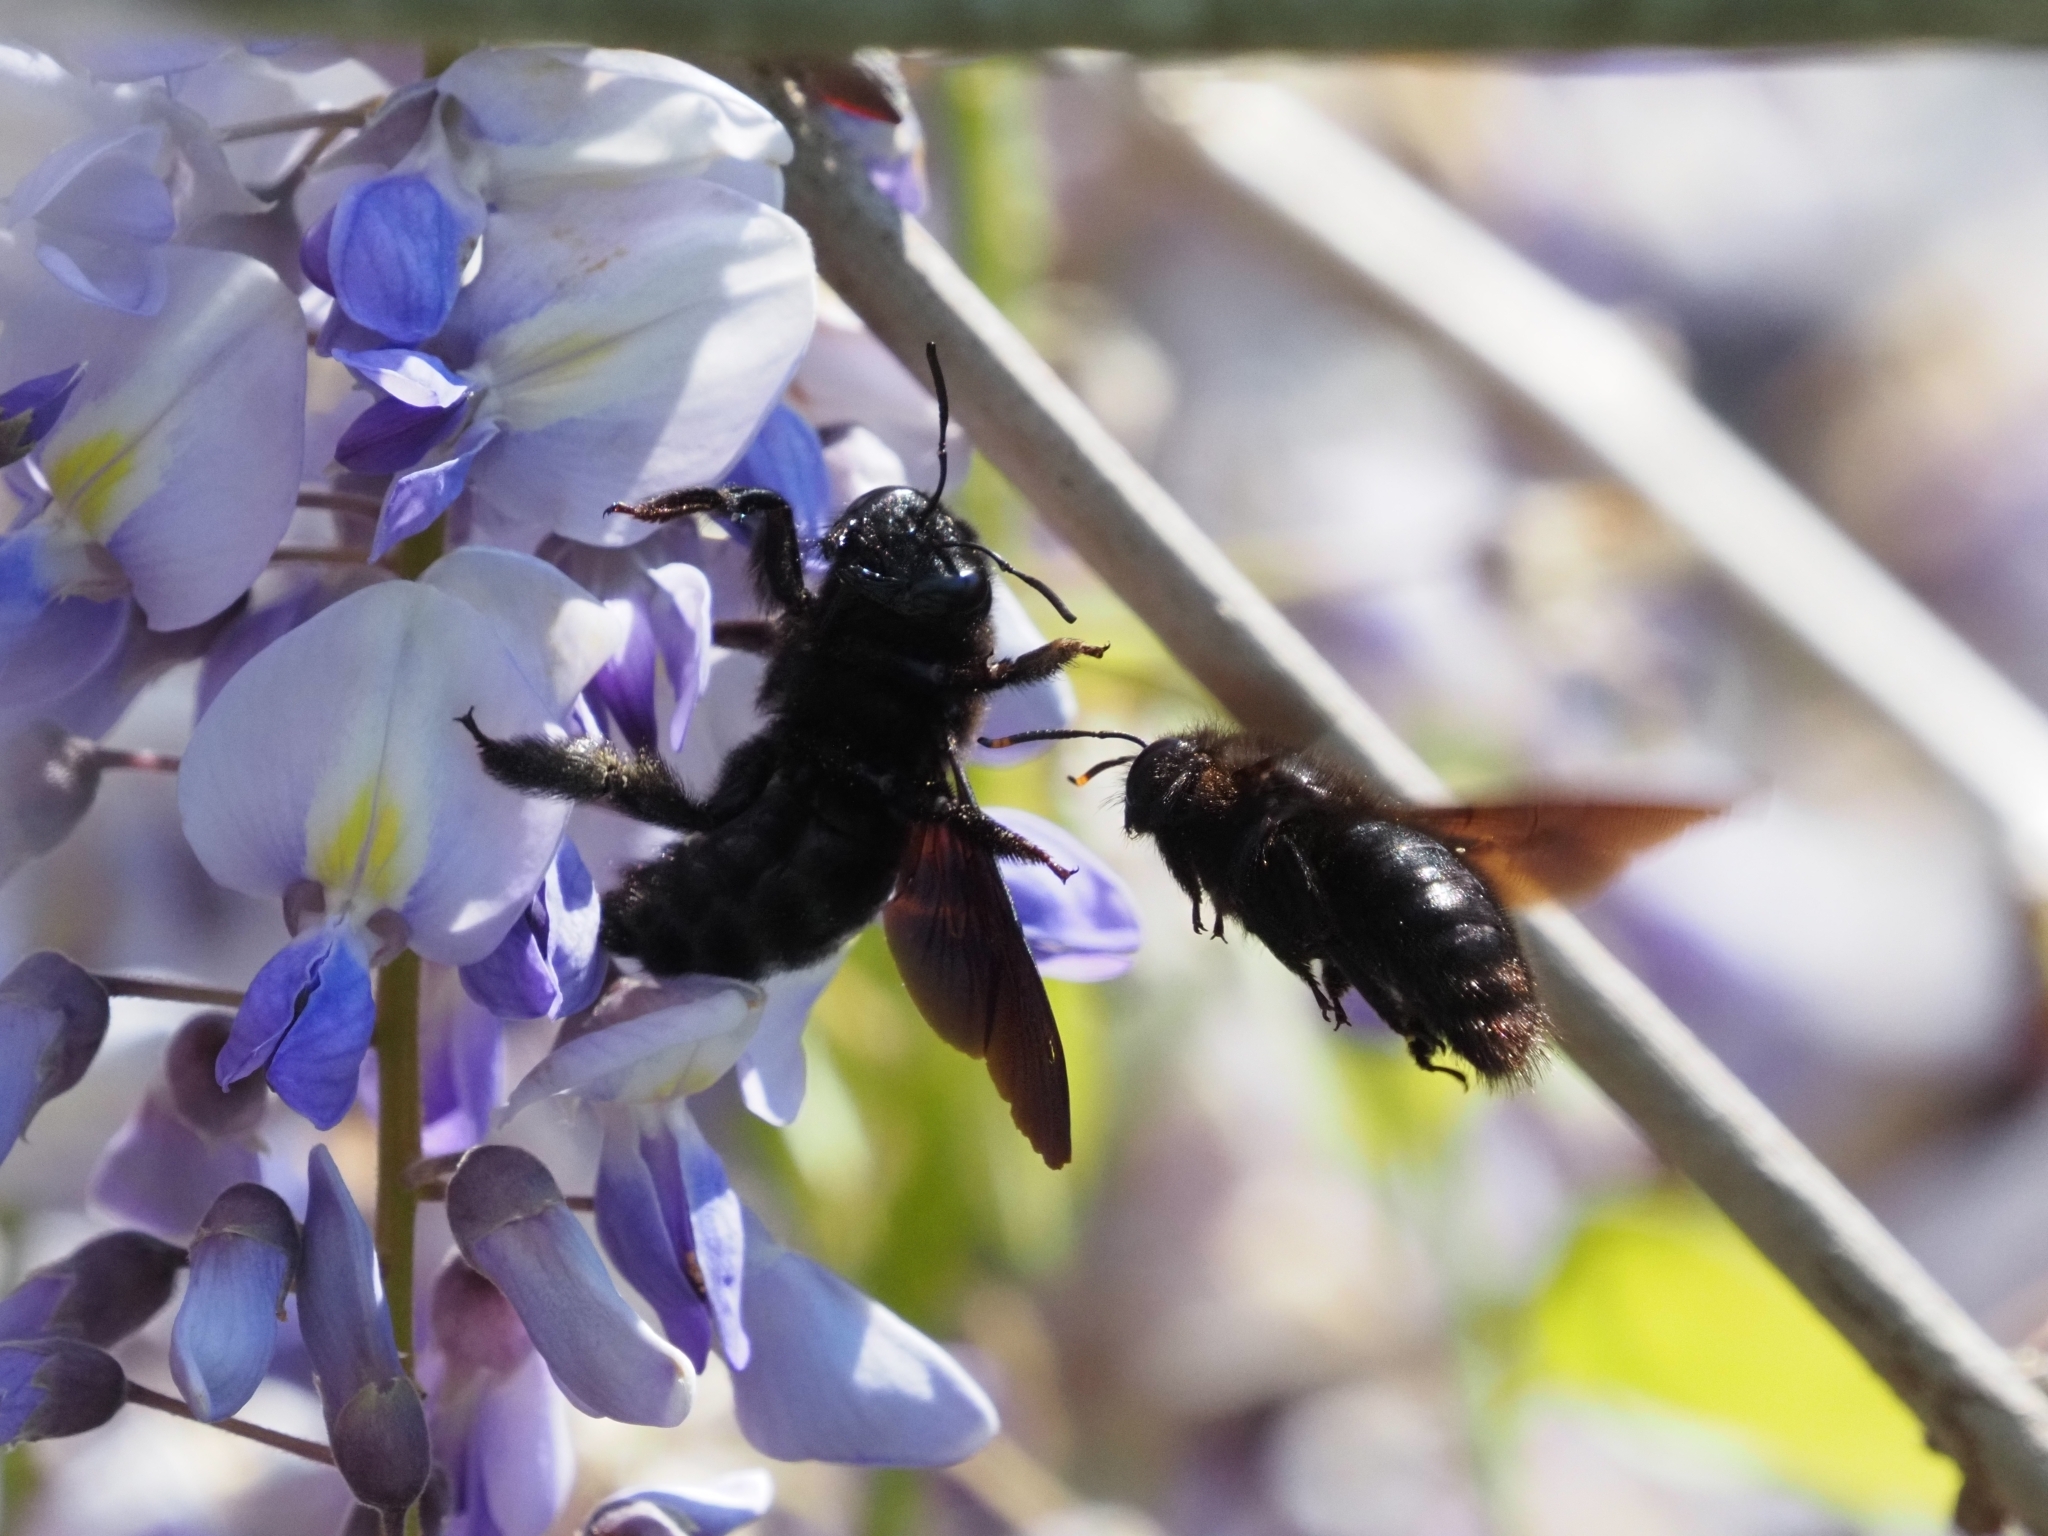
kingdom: Animalia
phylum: Arthropoda
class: Insecta
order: Hymenoptera
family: Apidae
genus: Xylocopa
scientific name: Xylocopa violacea
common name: Violet carpenter bee
